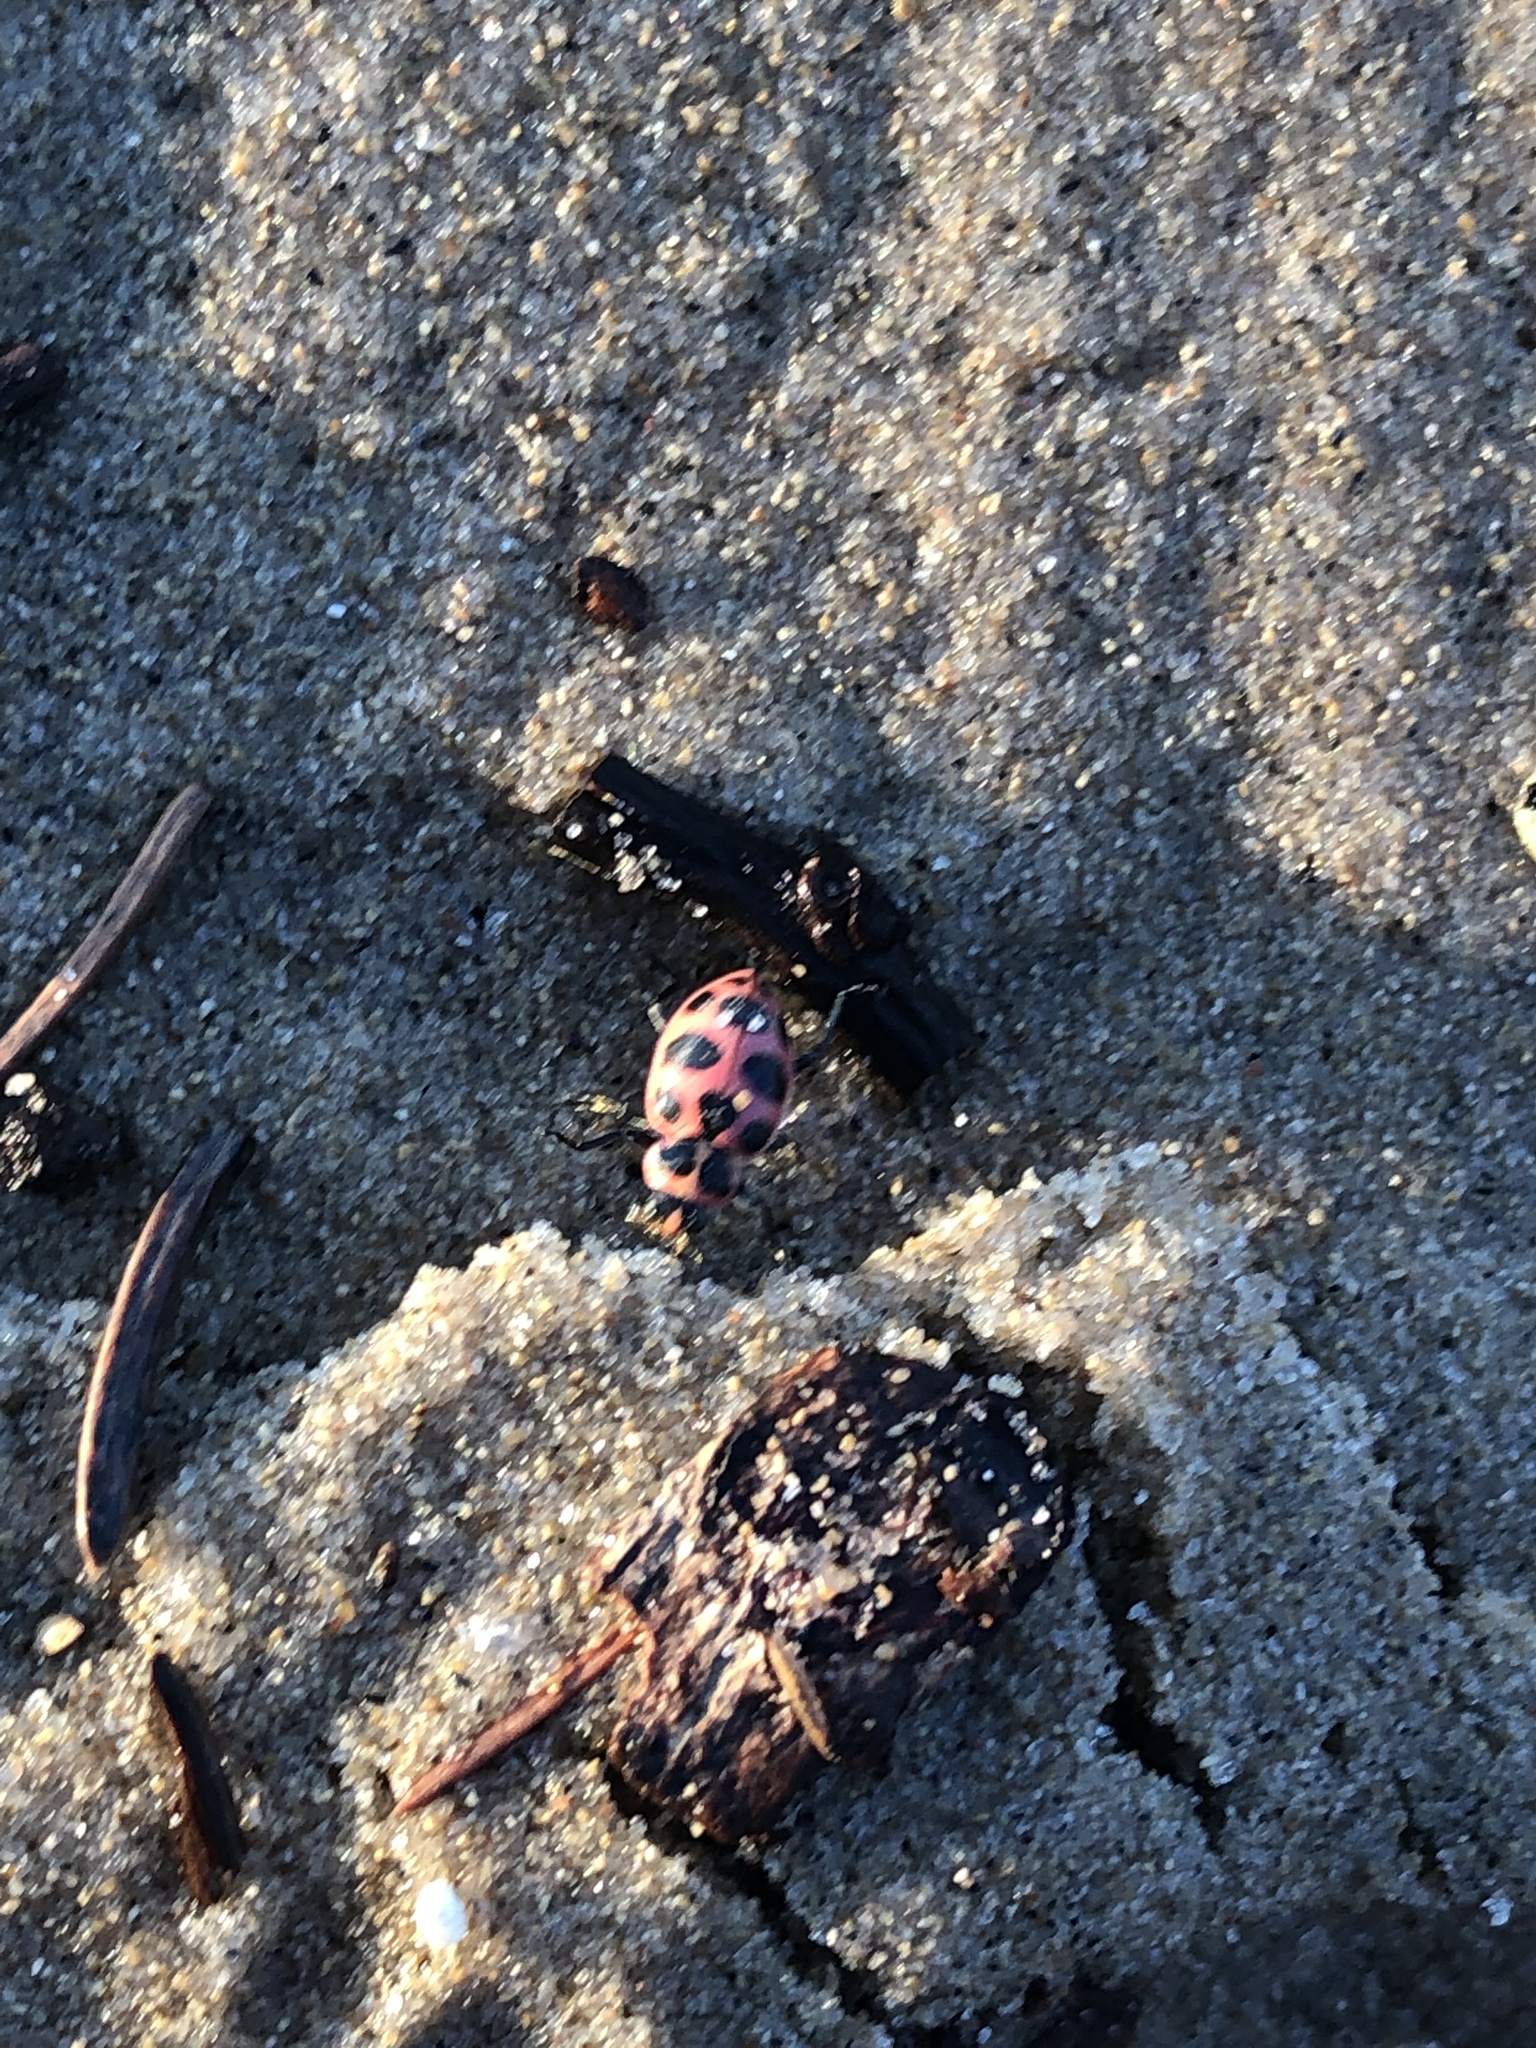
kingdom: Animalia
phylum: Arthropoda
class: Insecta
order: Coleoptera
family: Coccinellidae
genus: Coleomegilla
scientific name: Coleomegilla maculata
